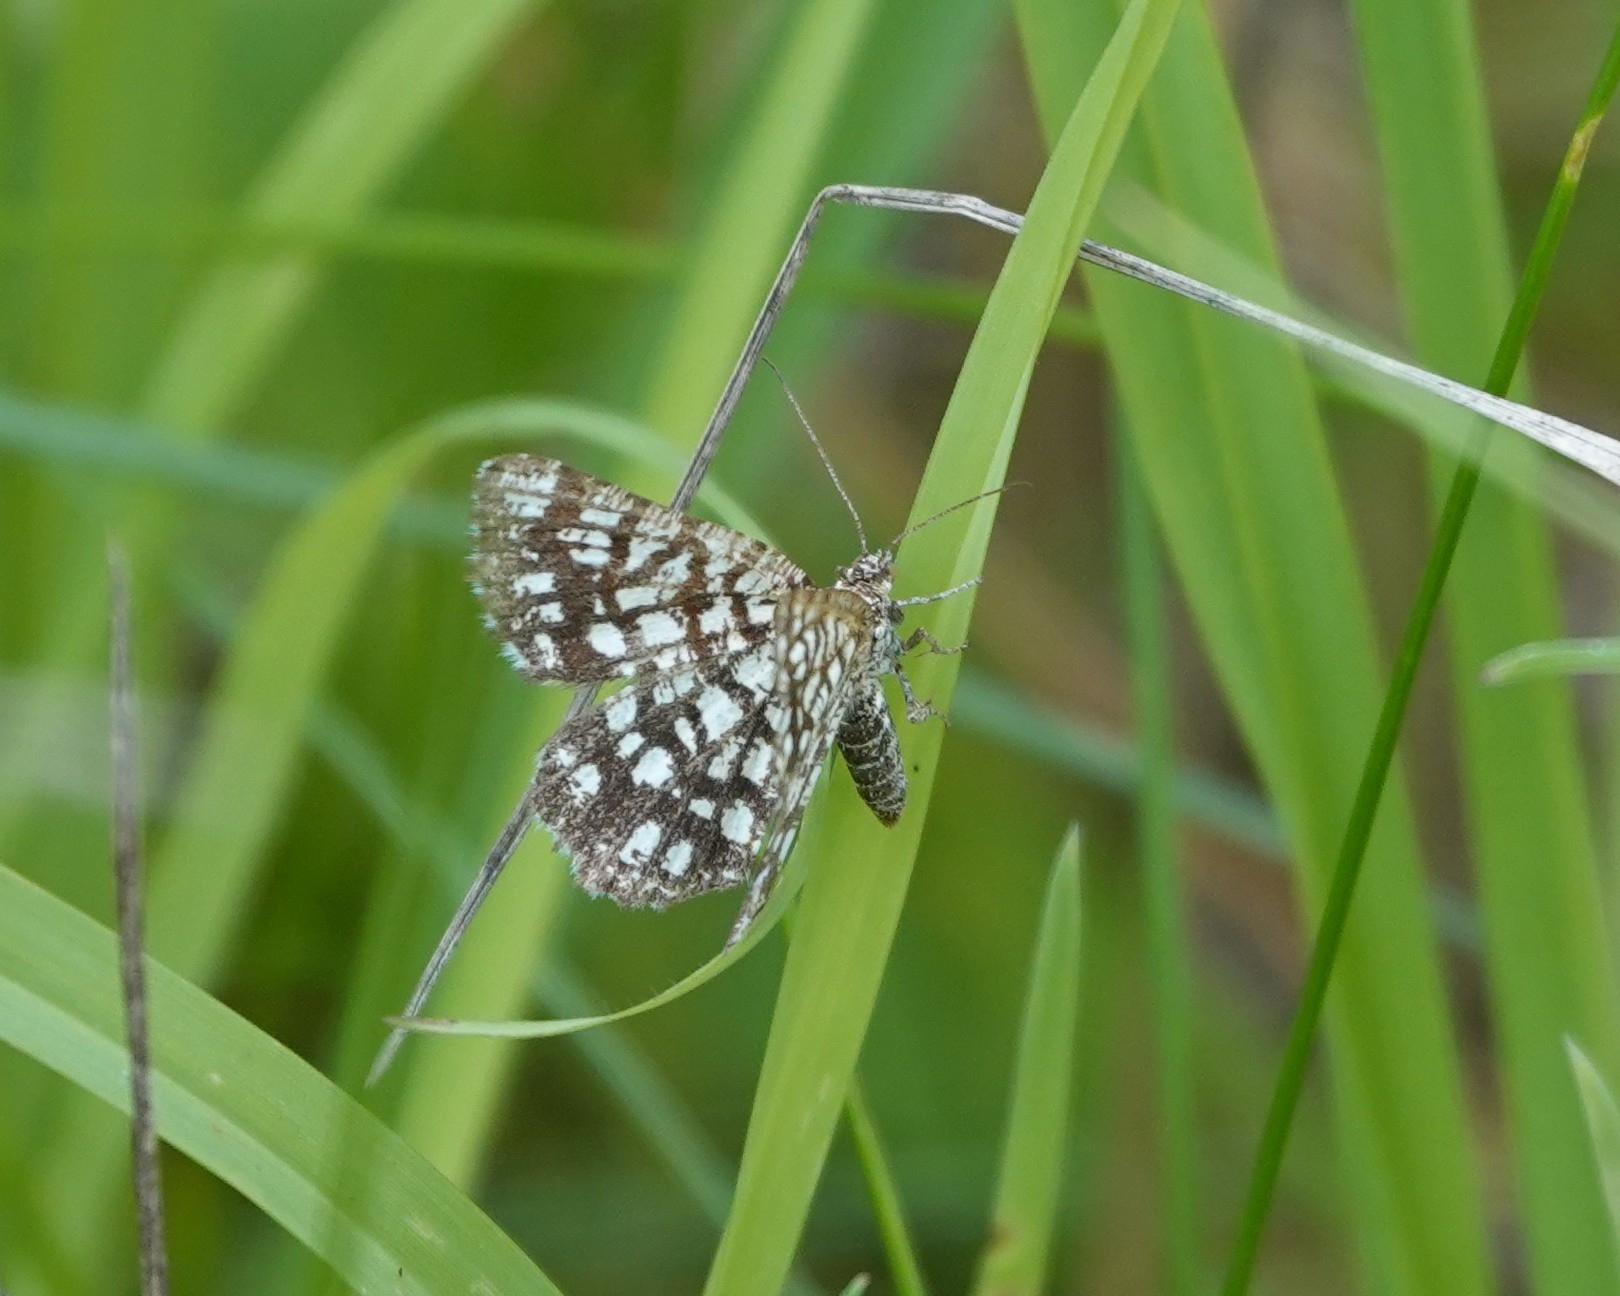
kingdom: Animalia
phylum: Arthropoda
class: Insecta
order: Lepidoptera
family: Geometridae
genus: Chiasmia
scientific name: Chiasmia clathrata
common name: Latticed heath
